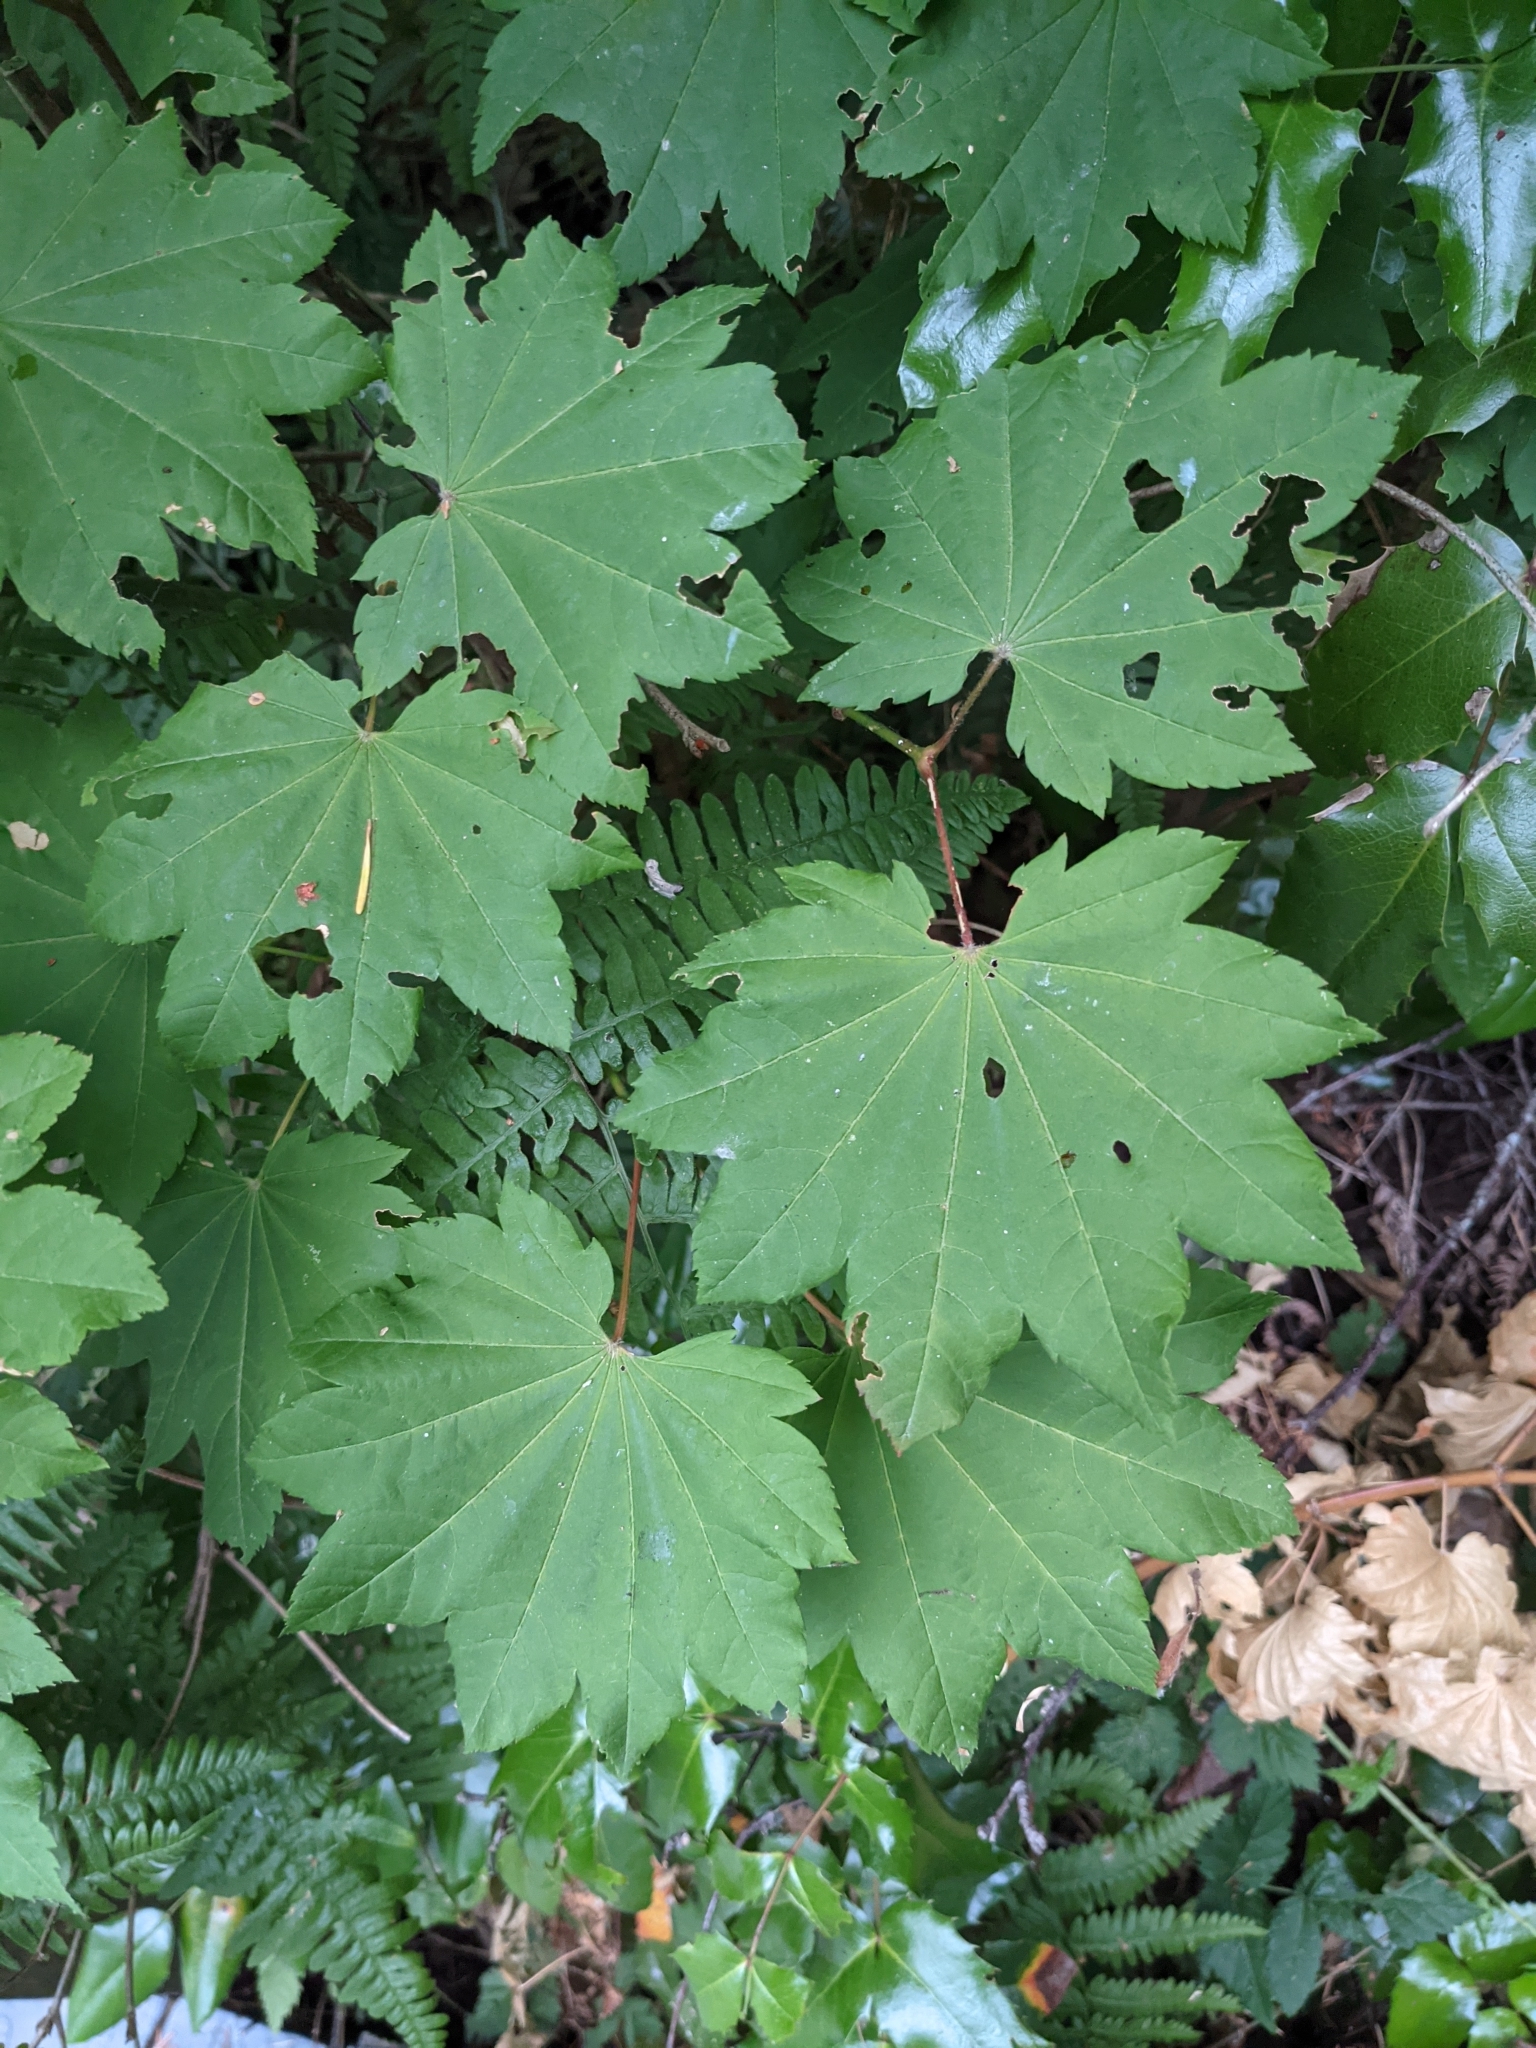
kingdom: Plantae
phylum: Tracheophyta
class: Magnoliopsida
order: Sapindales
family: Sapindaceae
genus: Acer
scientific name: Acer circinatum
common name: Vine maple
